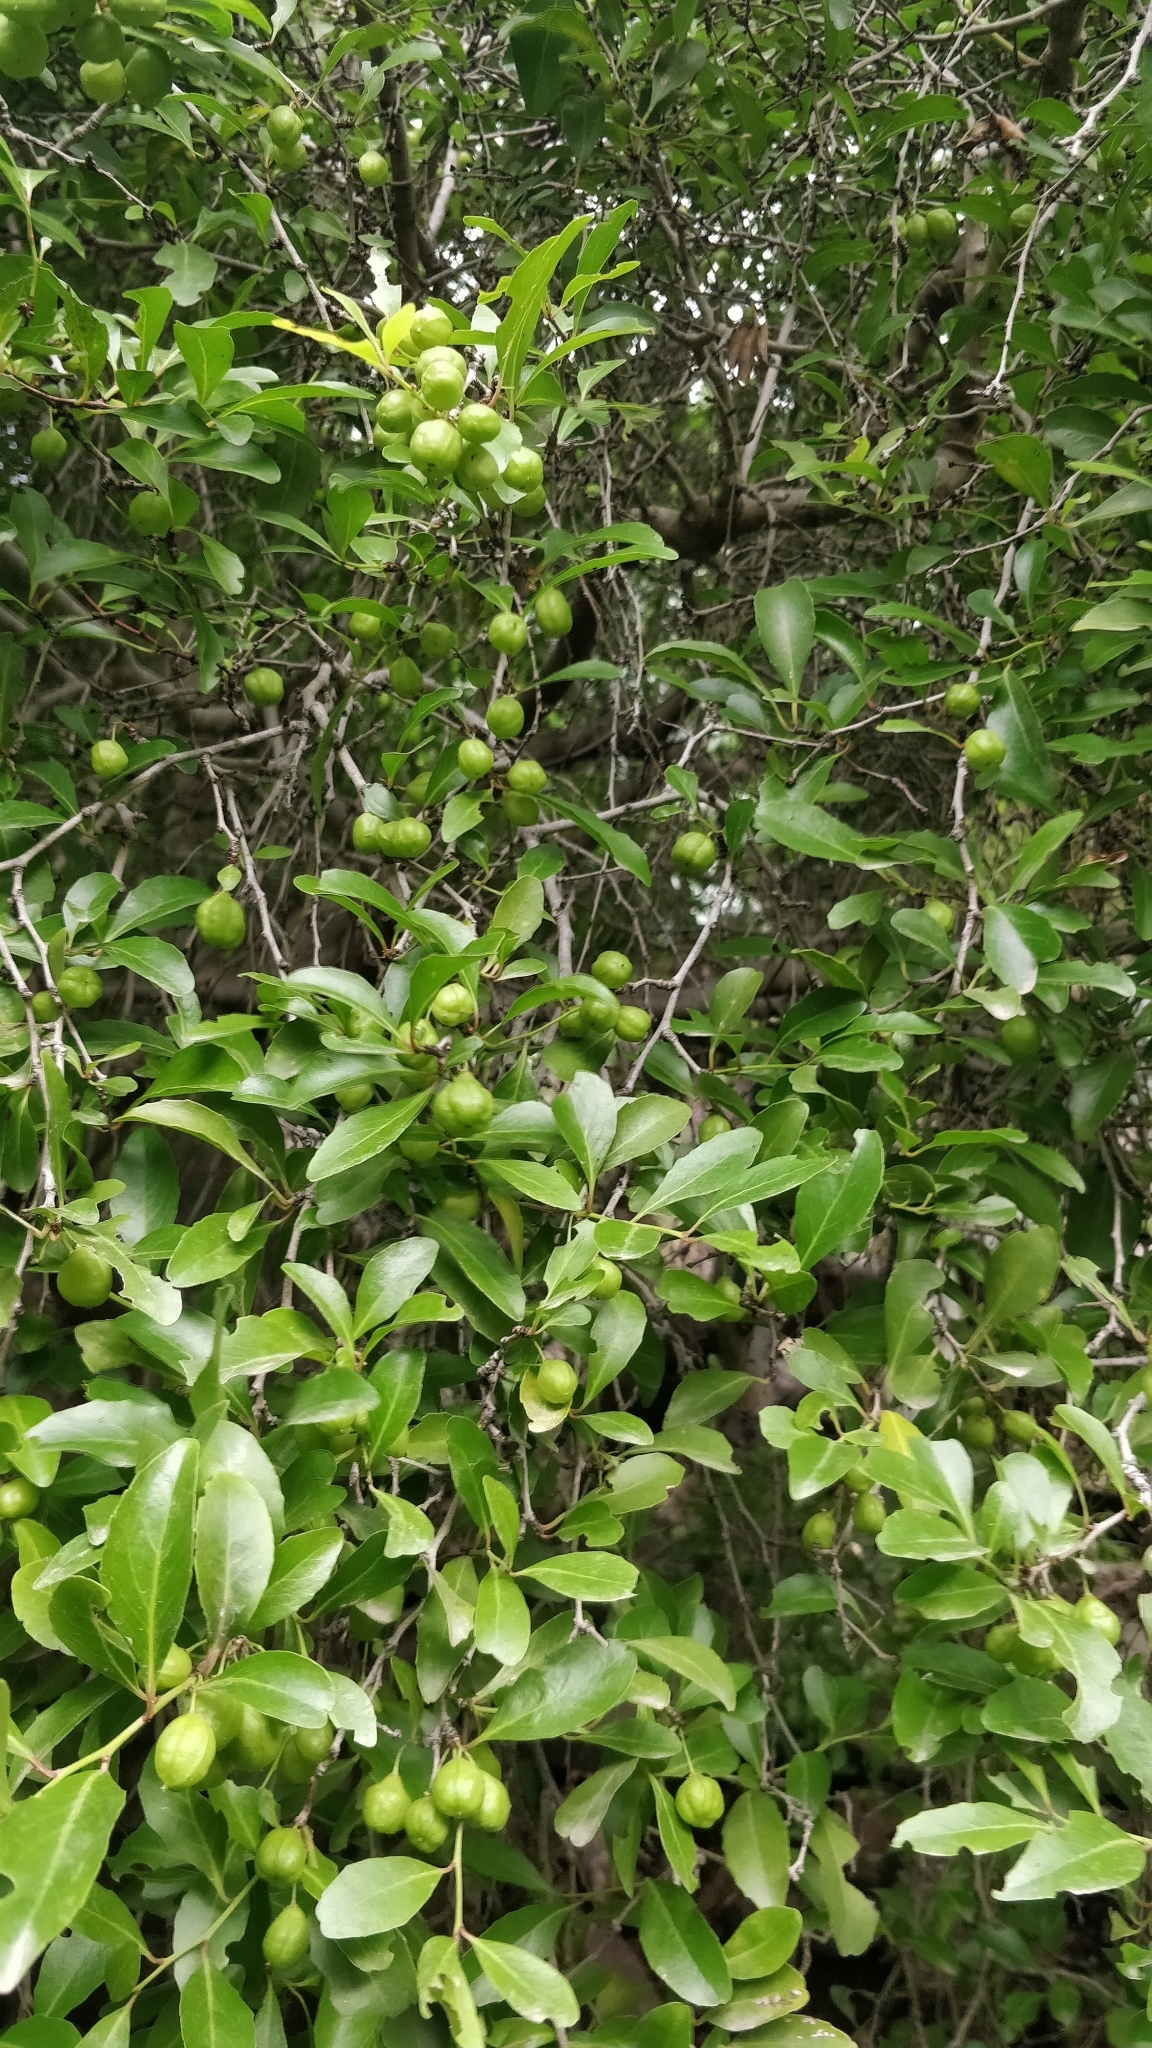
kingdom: Plantae
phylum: Tracheophyta
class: Magnoliopsida
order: Celastrales
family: Celastraceae
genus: Gymnosporia
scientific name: Gymnosporia dryandri
